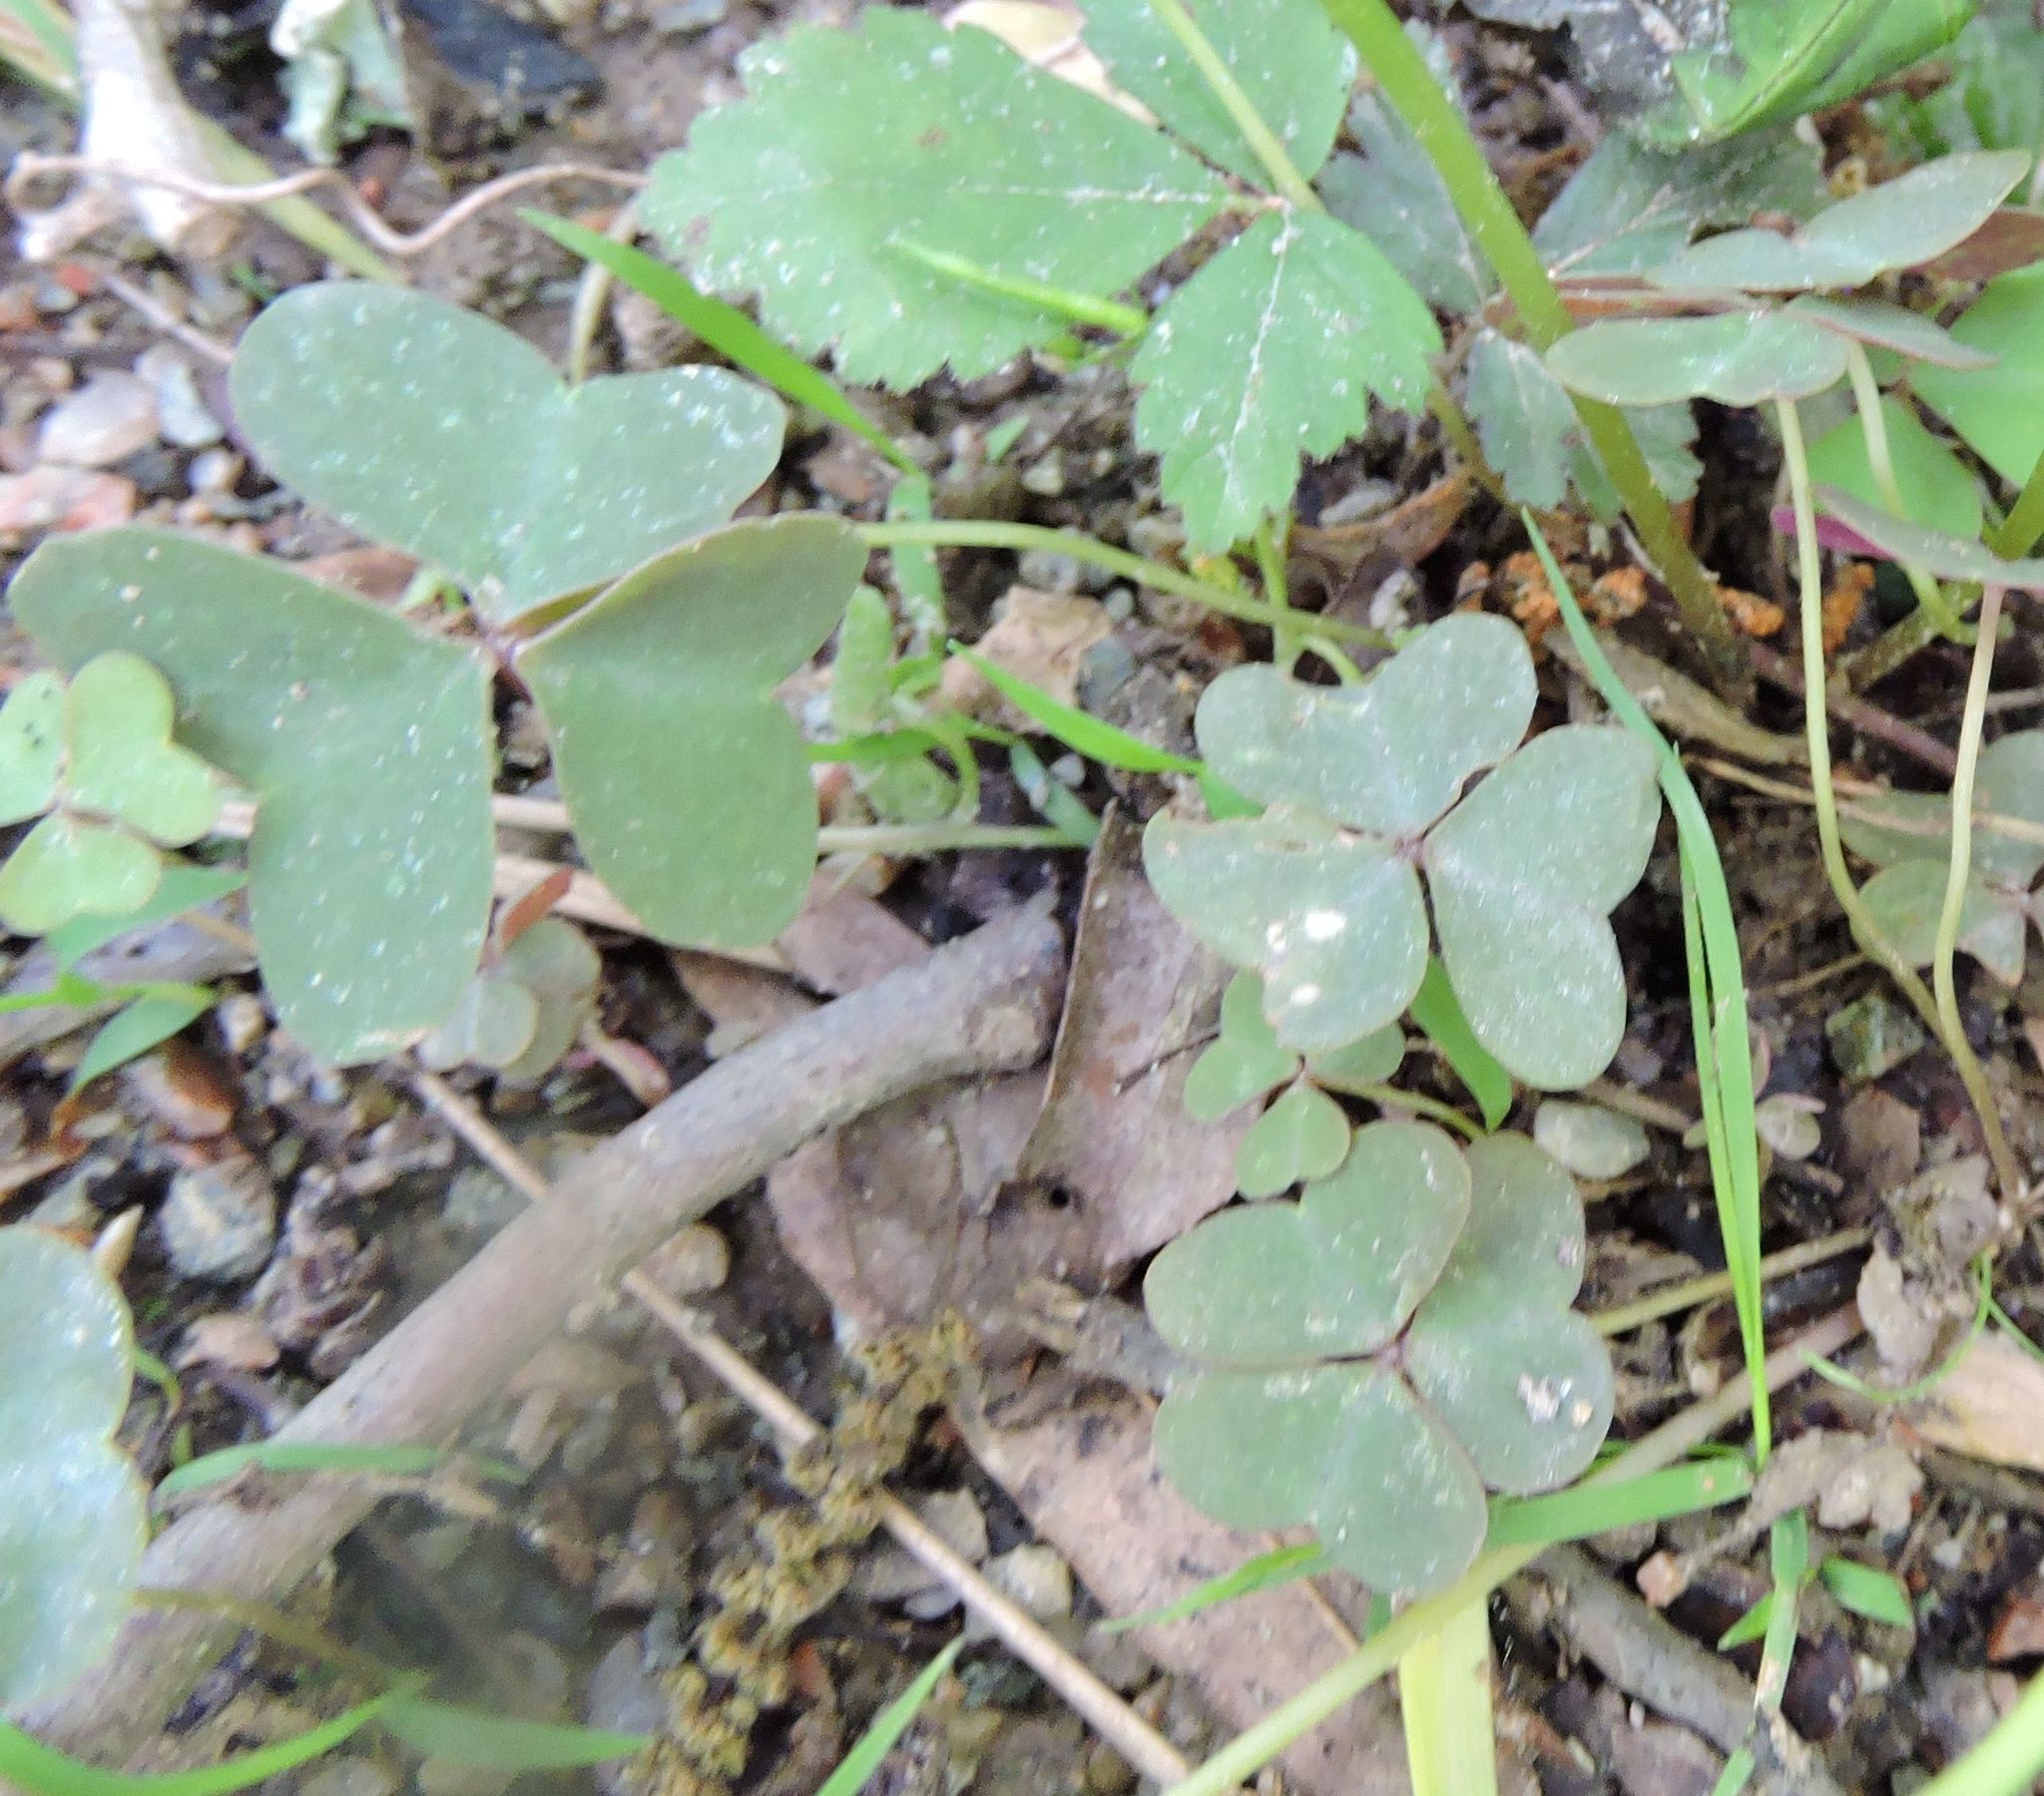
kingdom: Plantae
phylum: Tracheophyta
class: Magnoliopsida
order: Oxalidales
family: Oxalidaceae
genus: Oxalis
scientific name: Oxalis violacea
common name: Violet wood-sorrel
